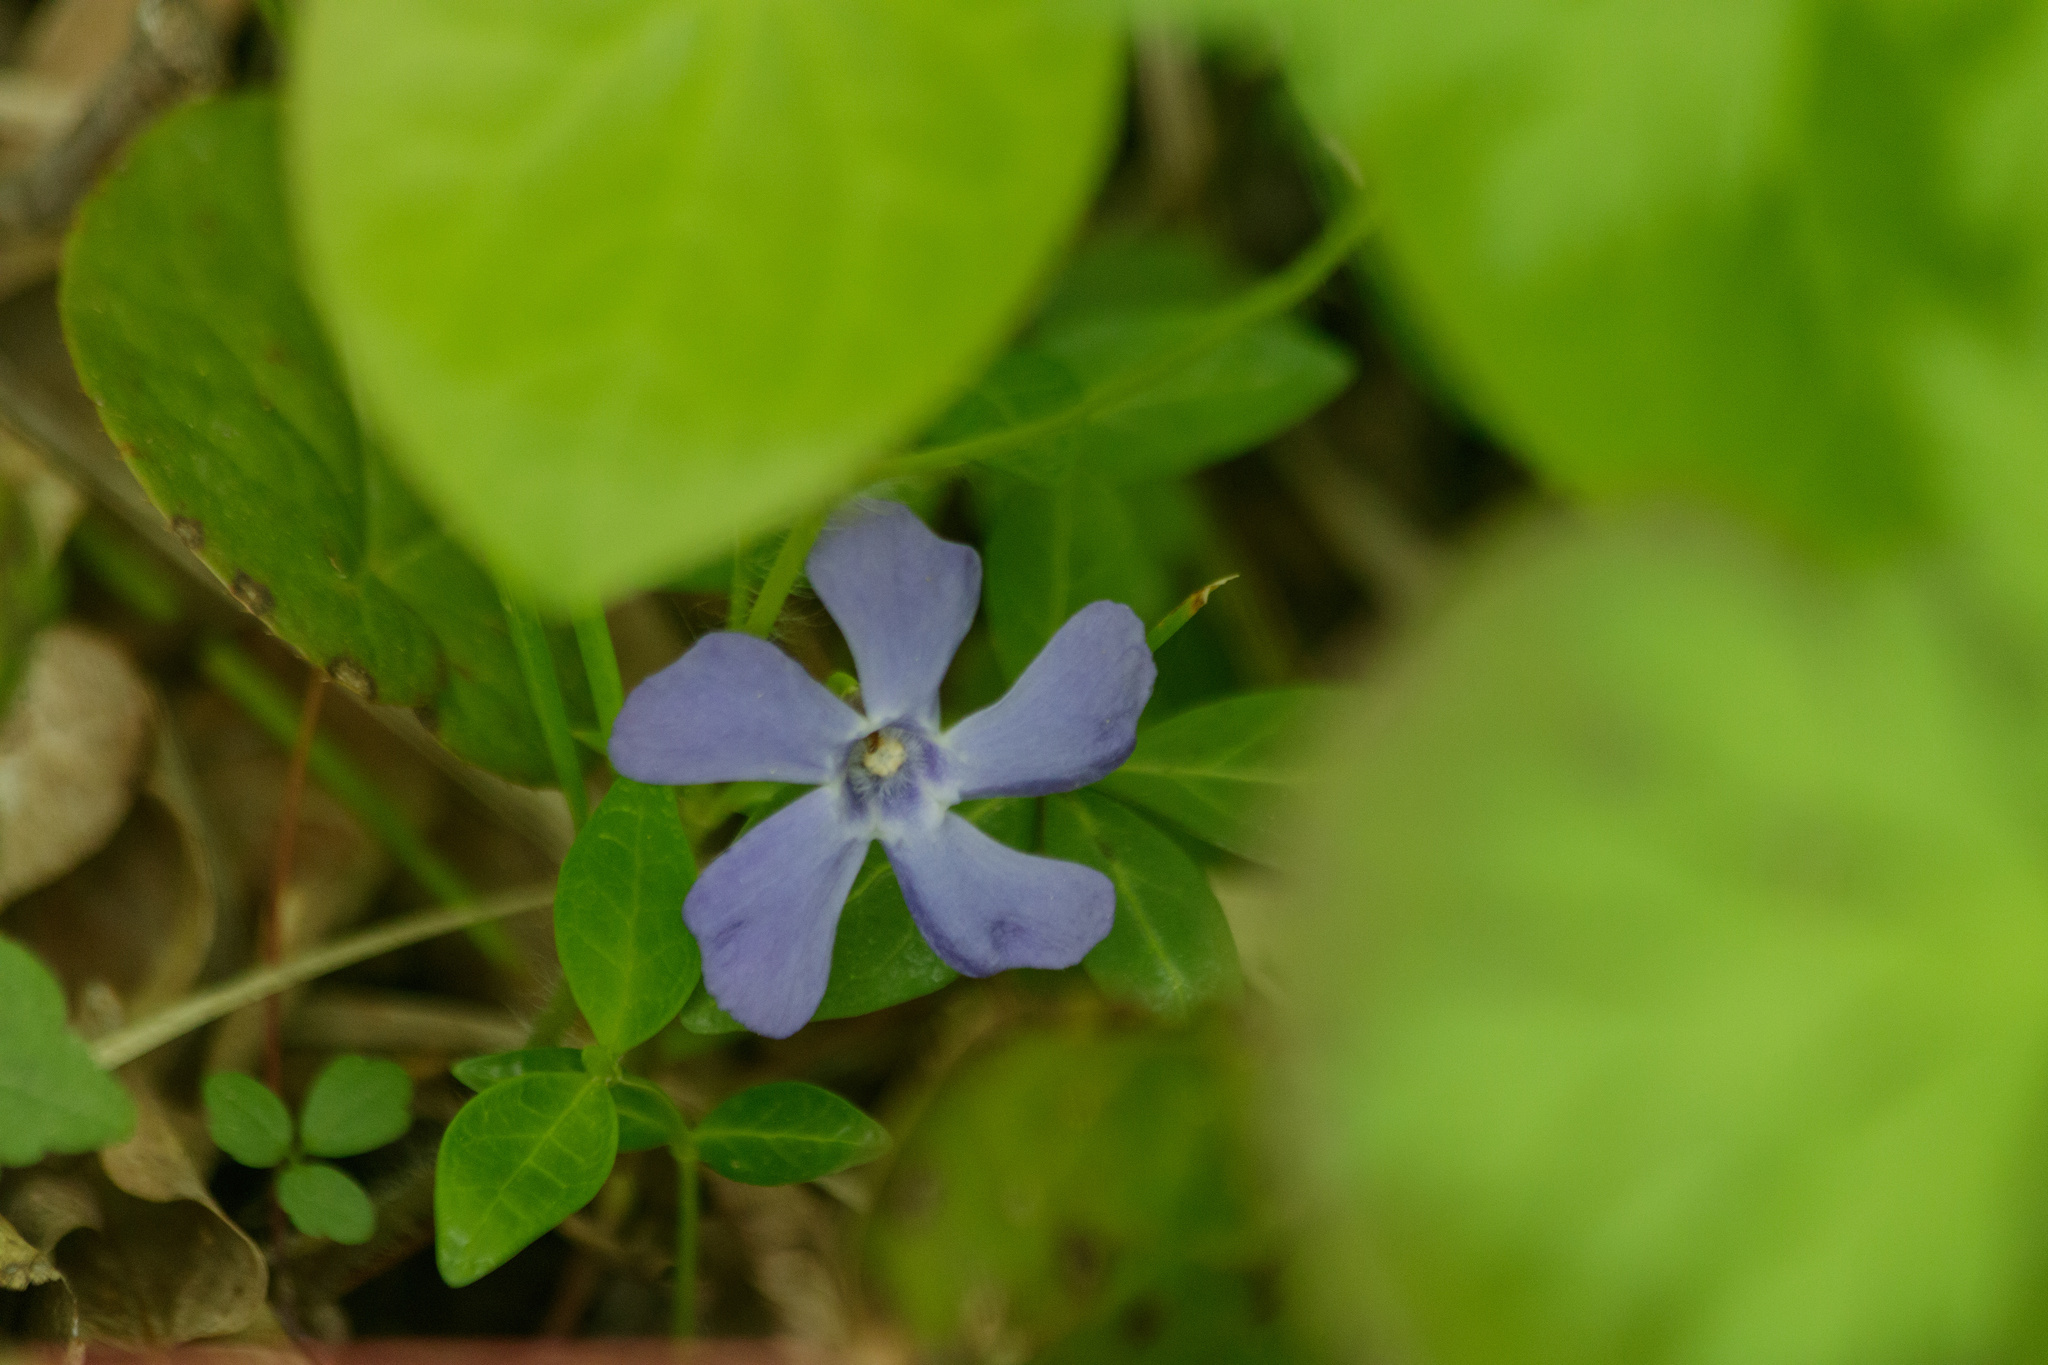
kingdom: Plantae
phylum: Tracheophyta
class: Magnoliopsida
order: Gentianales
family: Apocynaceae
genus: Vinca
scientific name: Vinca minor
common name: Lesser periwinkle
